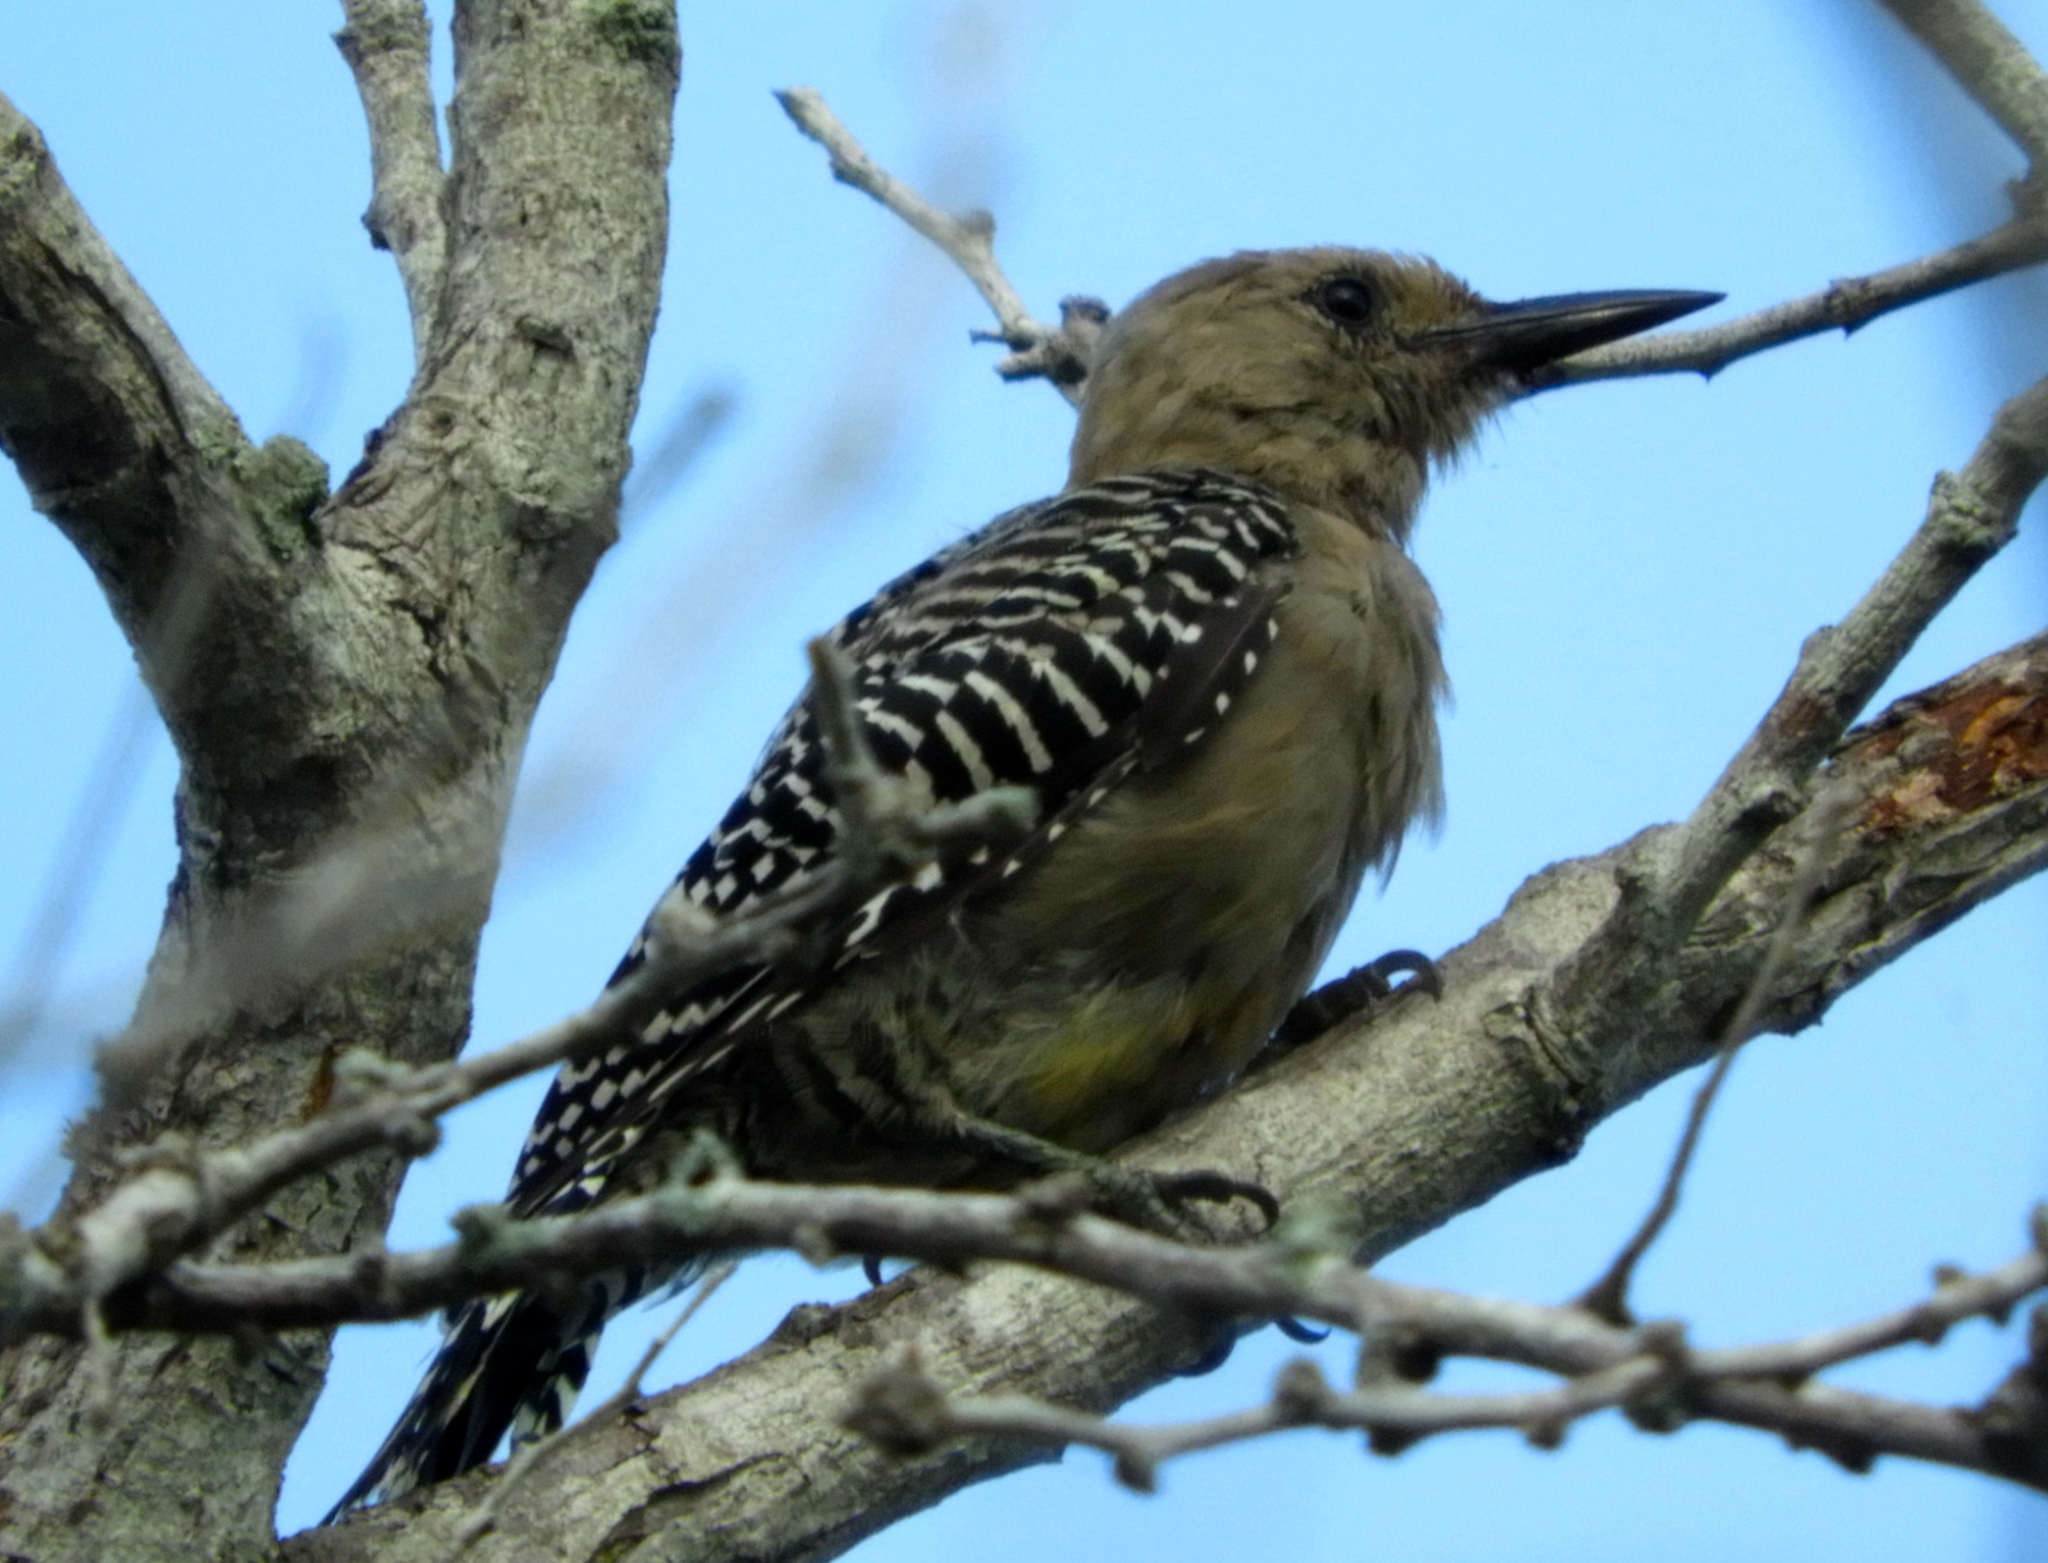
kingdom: Animalia
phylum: Chordata
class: Aves
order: Piciformes
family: Picidae
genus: Melanerpes
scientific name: Melanerpes uropygialis
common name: Gila woodpecker
